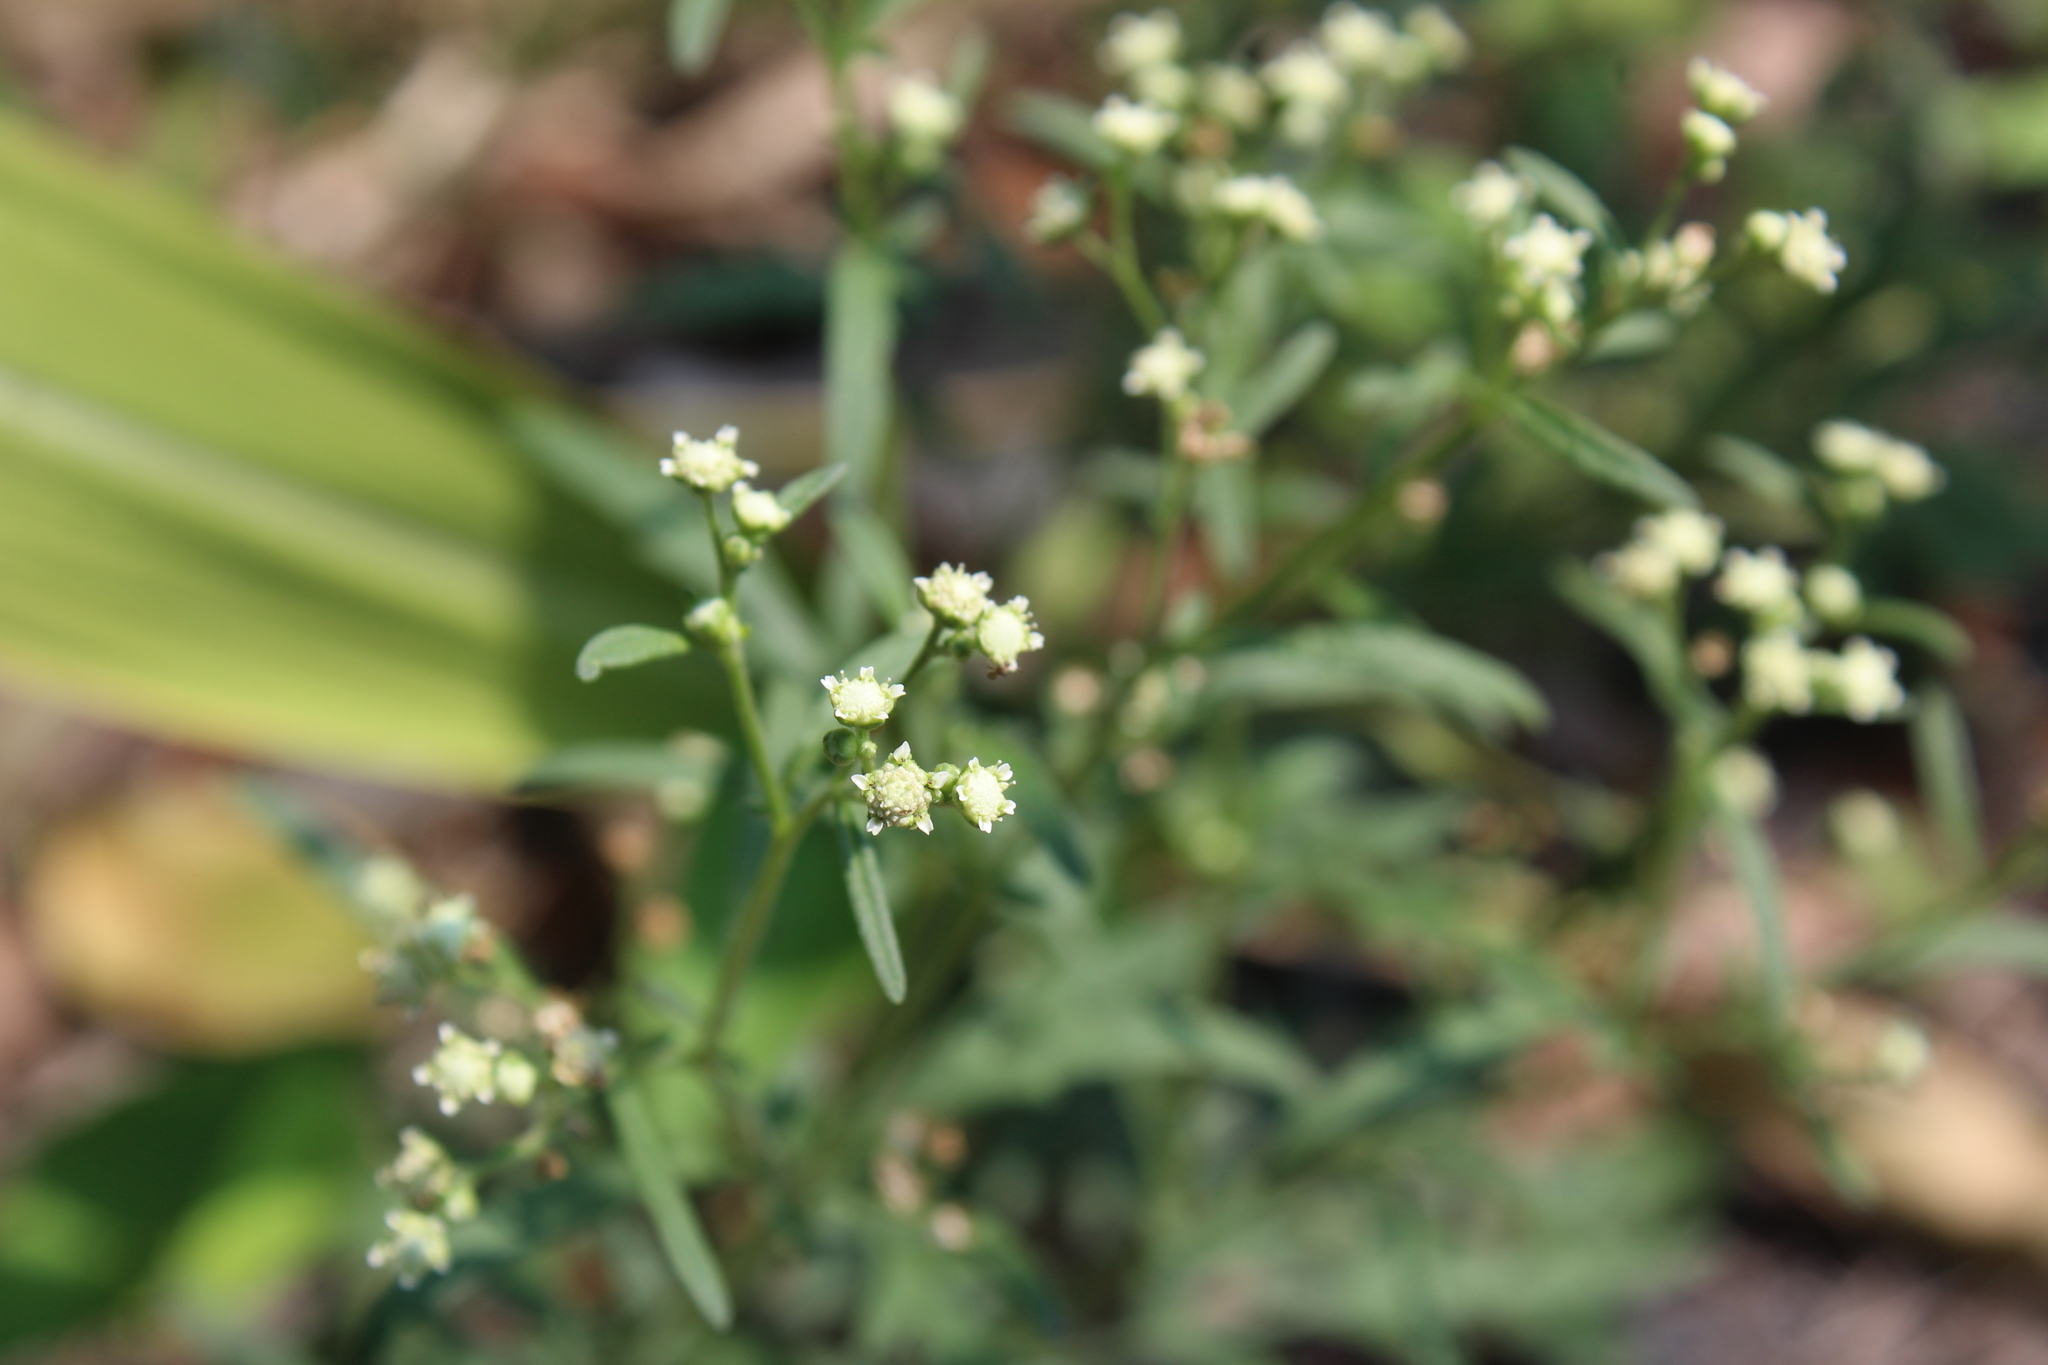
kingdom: Plantae
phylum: Tracheophyta
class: Magnoliopsida
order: Asterales
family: Asteraceae
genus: Parthenium
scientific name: Parthenium hysterophorus
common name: Santa maria feverfew
